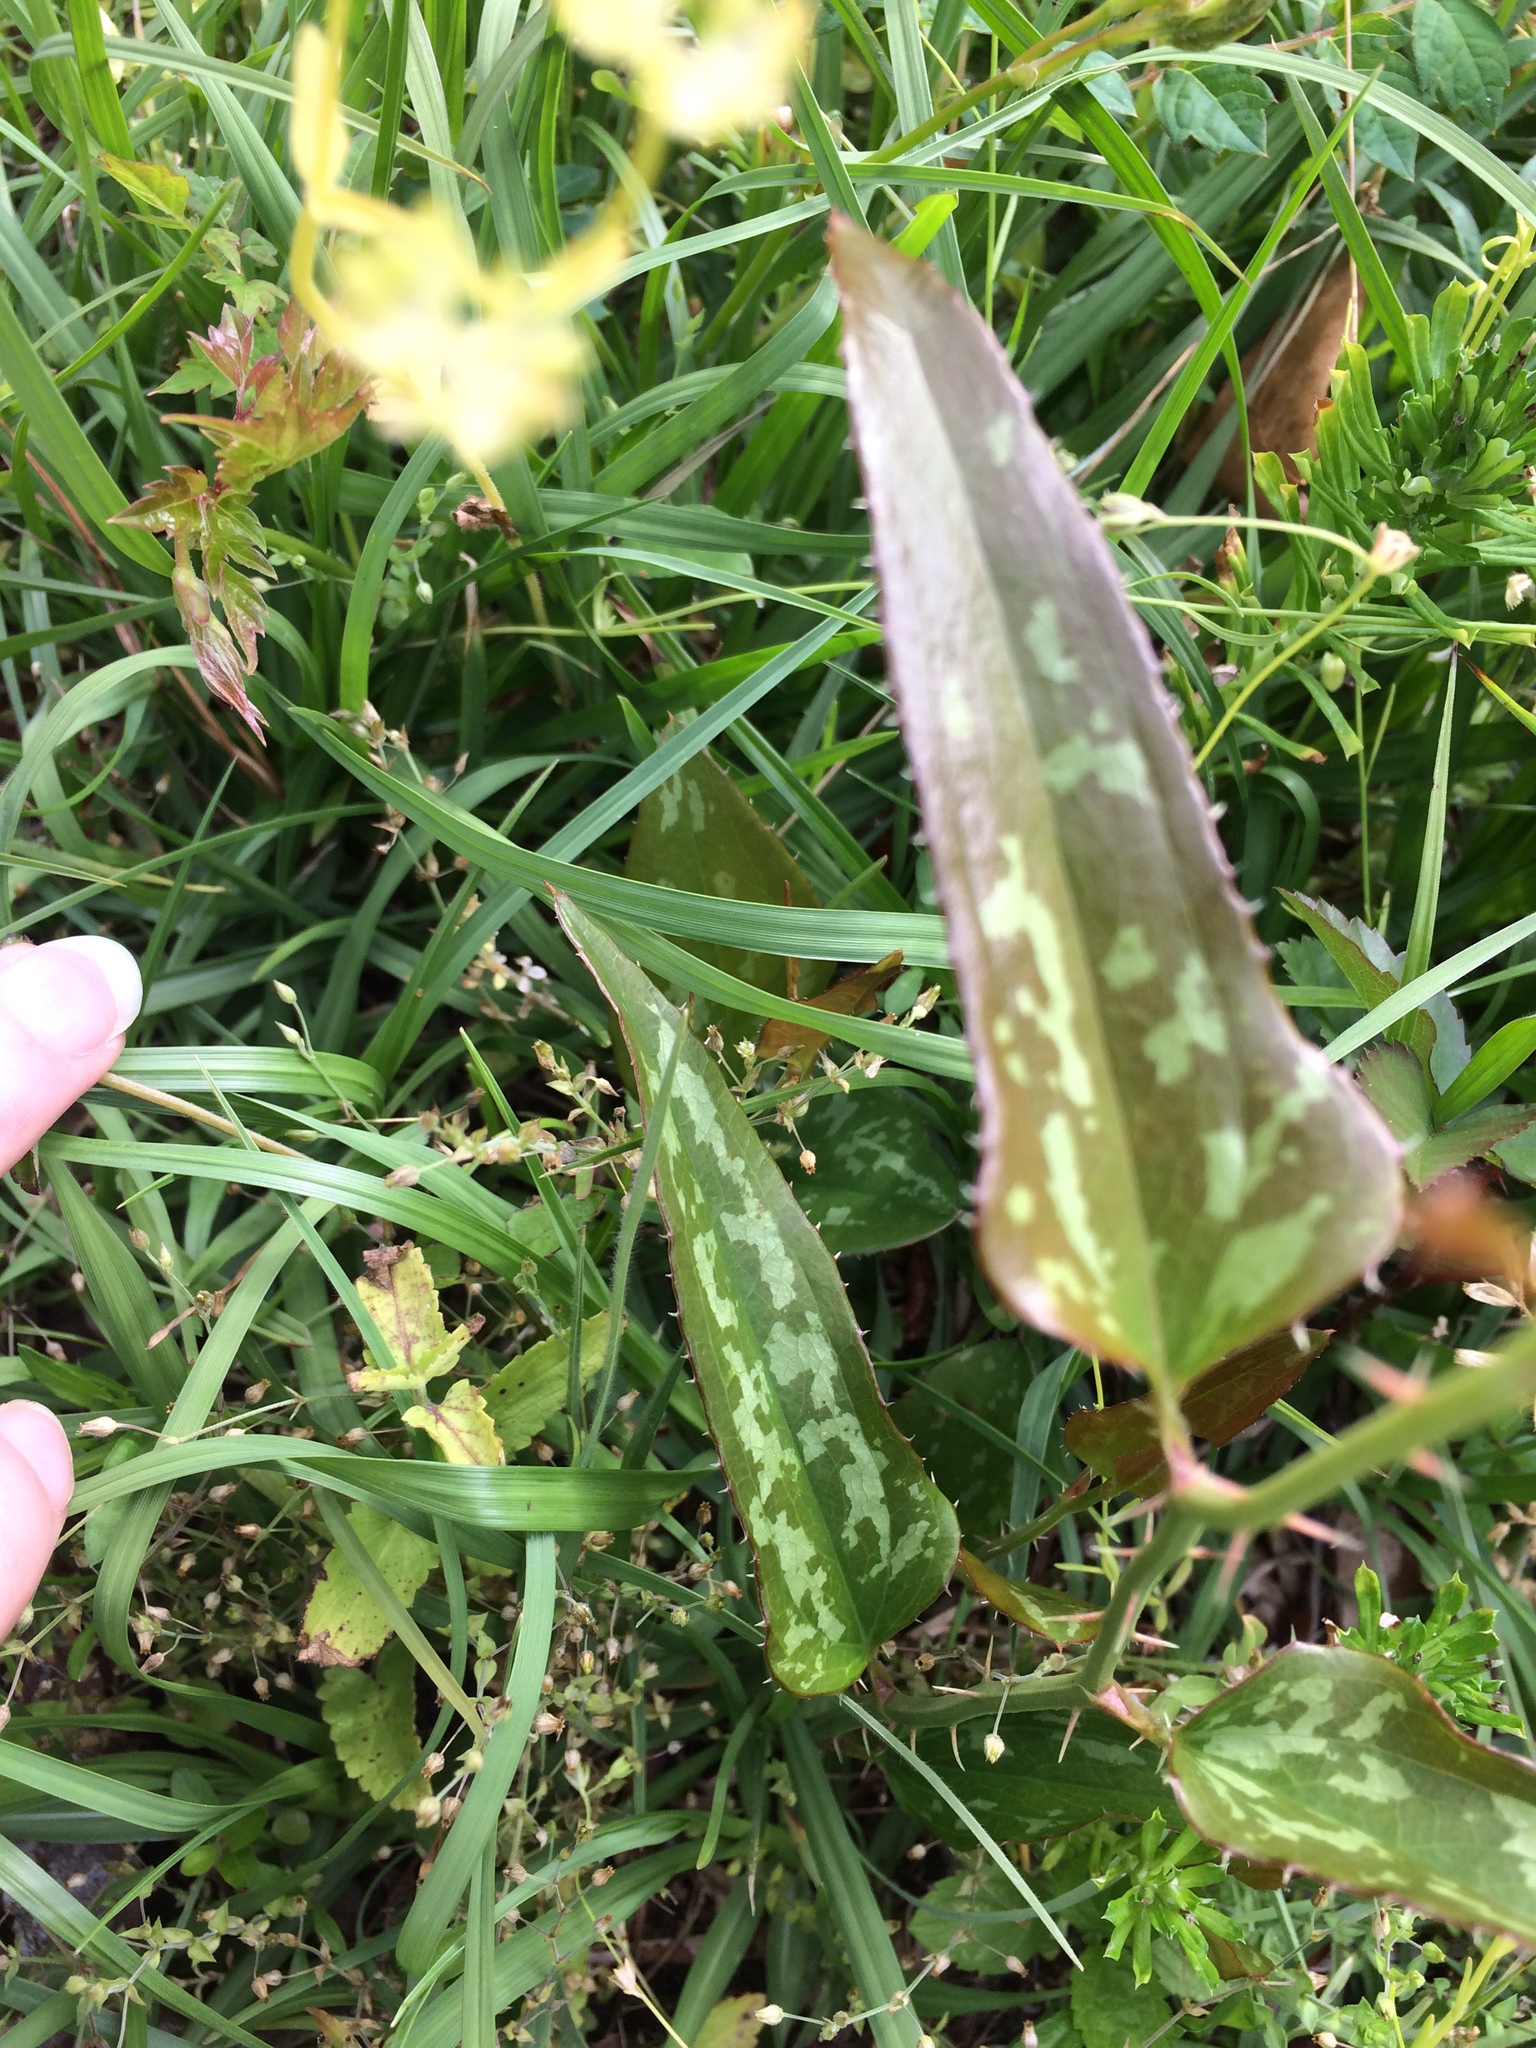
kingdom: Plantae
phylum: Tracheophyta
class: Liliopsida
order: Liliales
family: Smilacaceae
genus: Smilax
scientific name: Smilax bona-nox
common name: Catbrier
